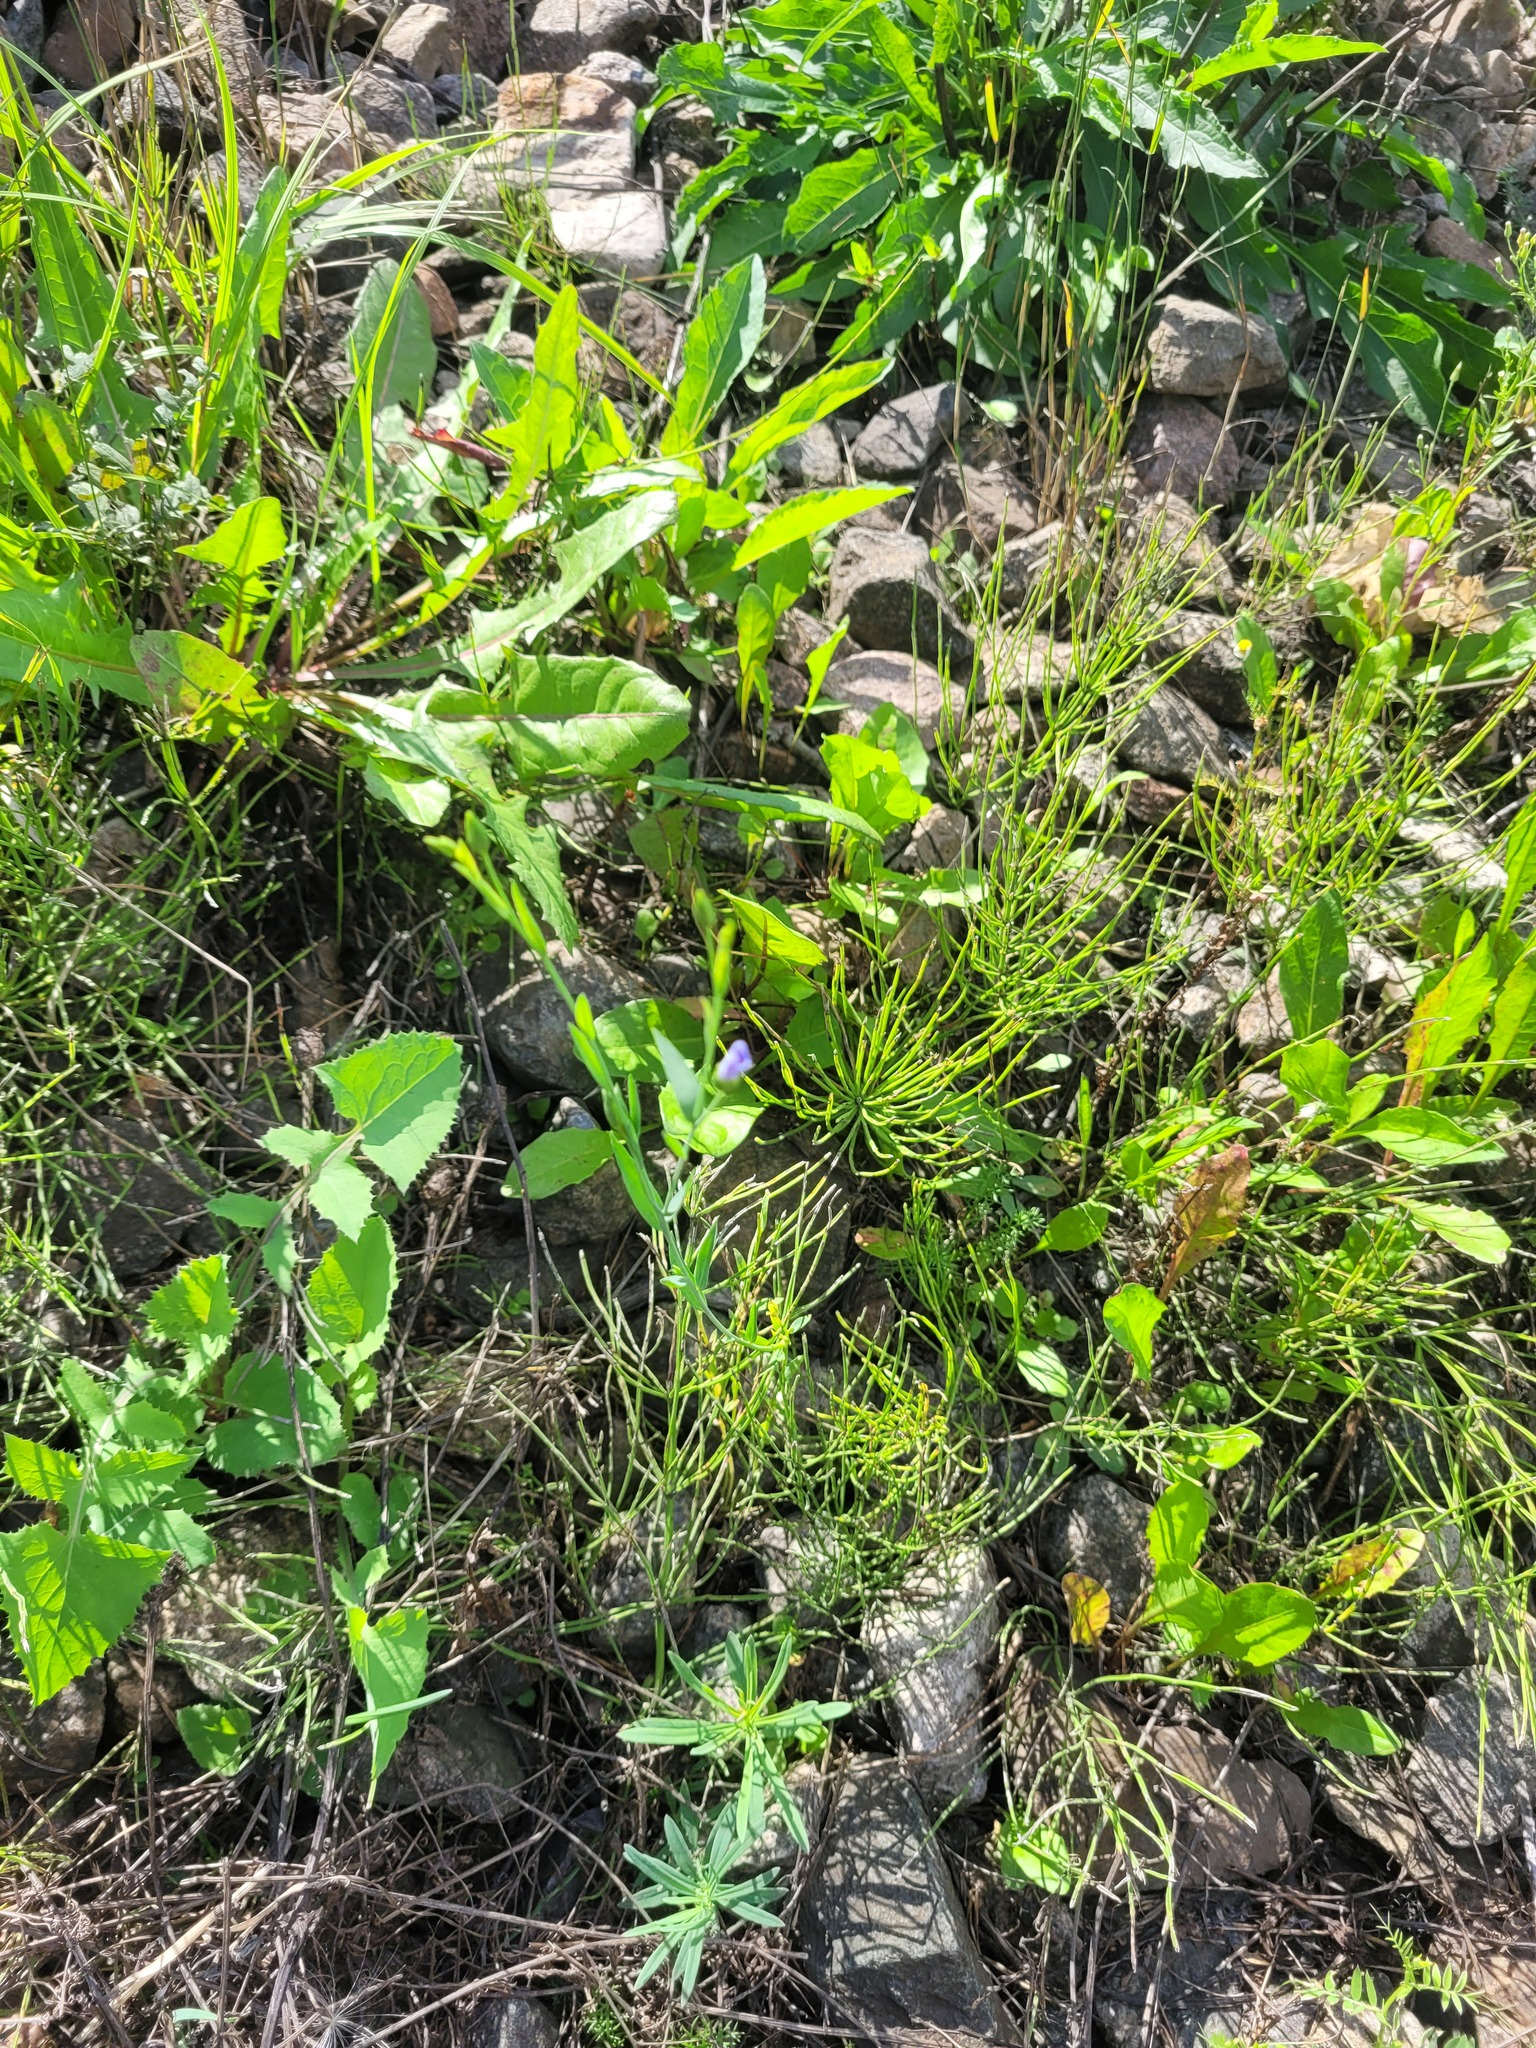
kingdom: Plantae
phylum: Tracheophyta
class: Magnoliopsida
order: Malpighiales
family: Linaceae
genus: Linum
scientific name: Linum usitatissimum
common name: Flax
